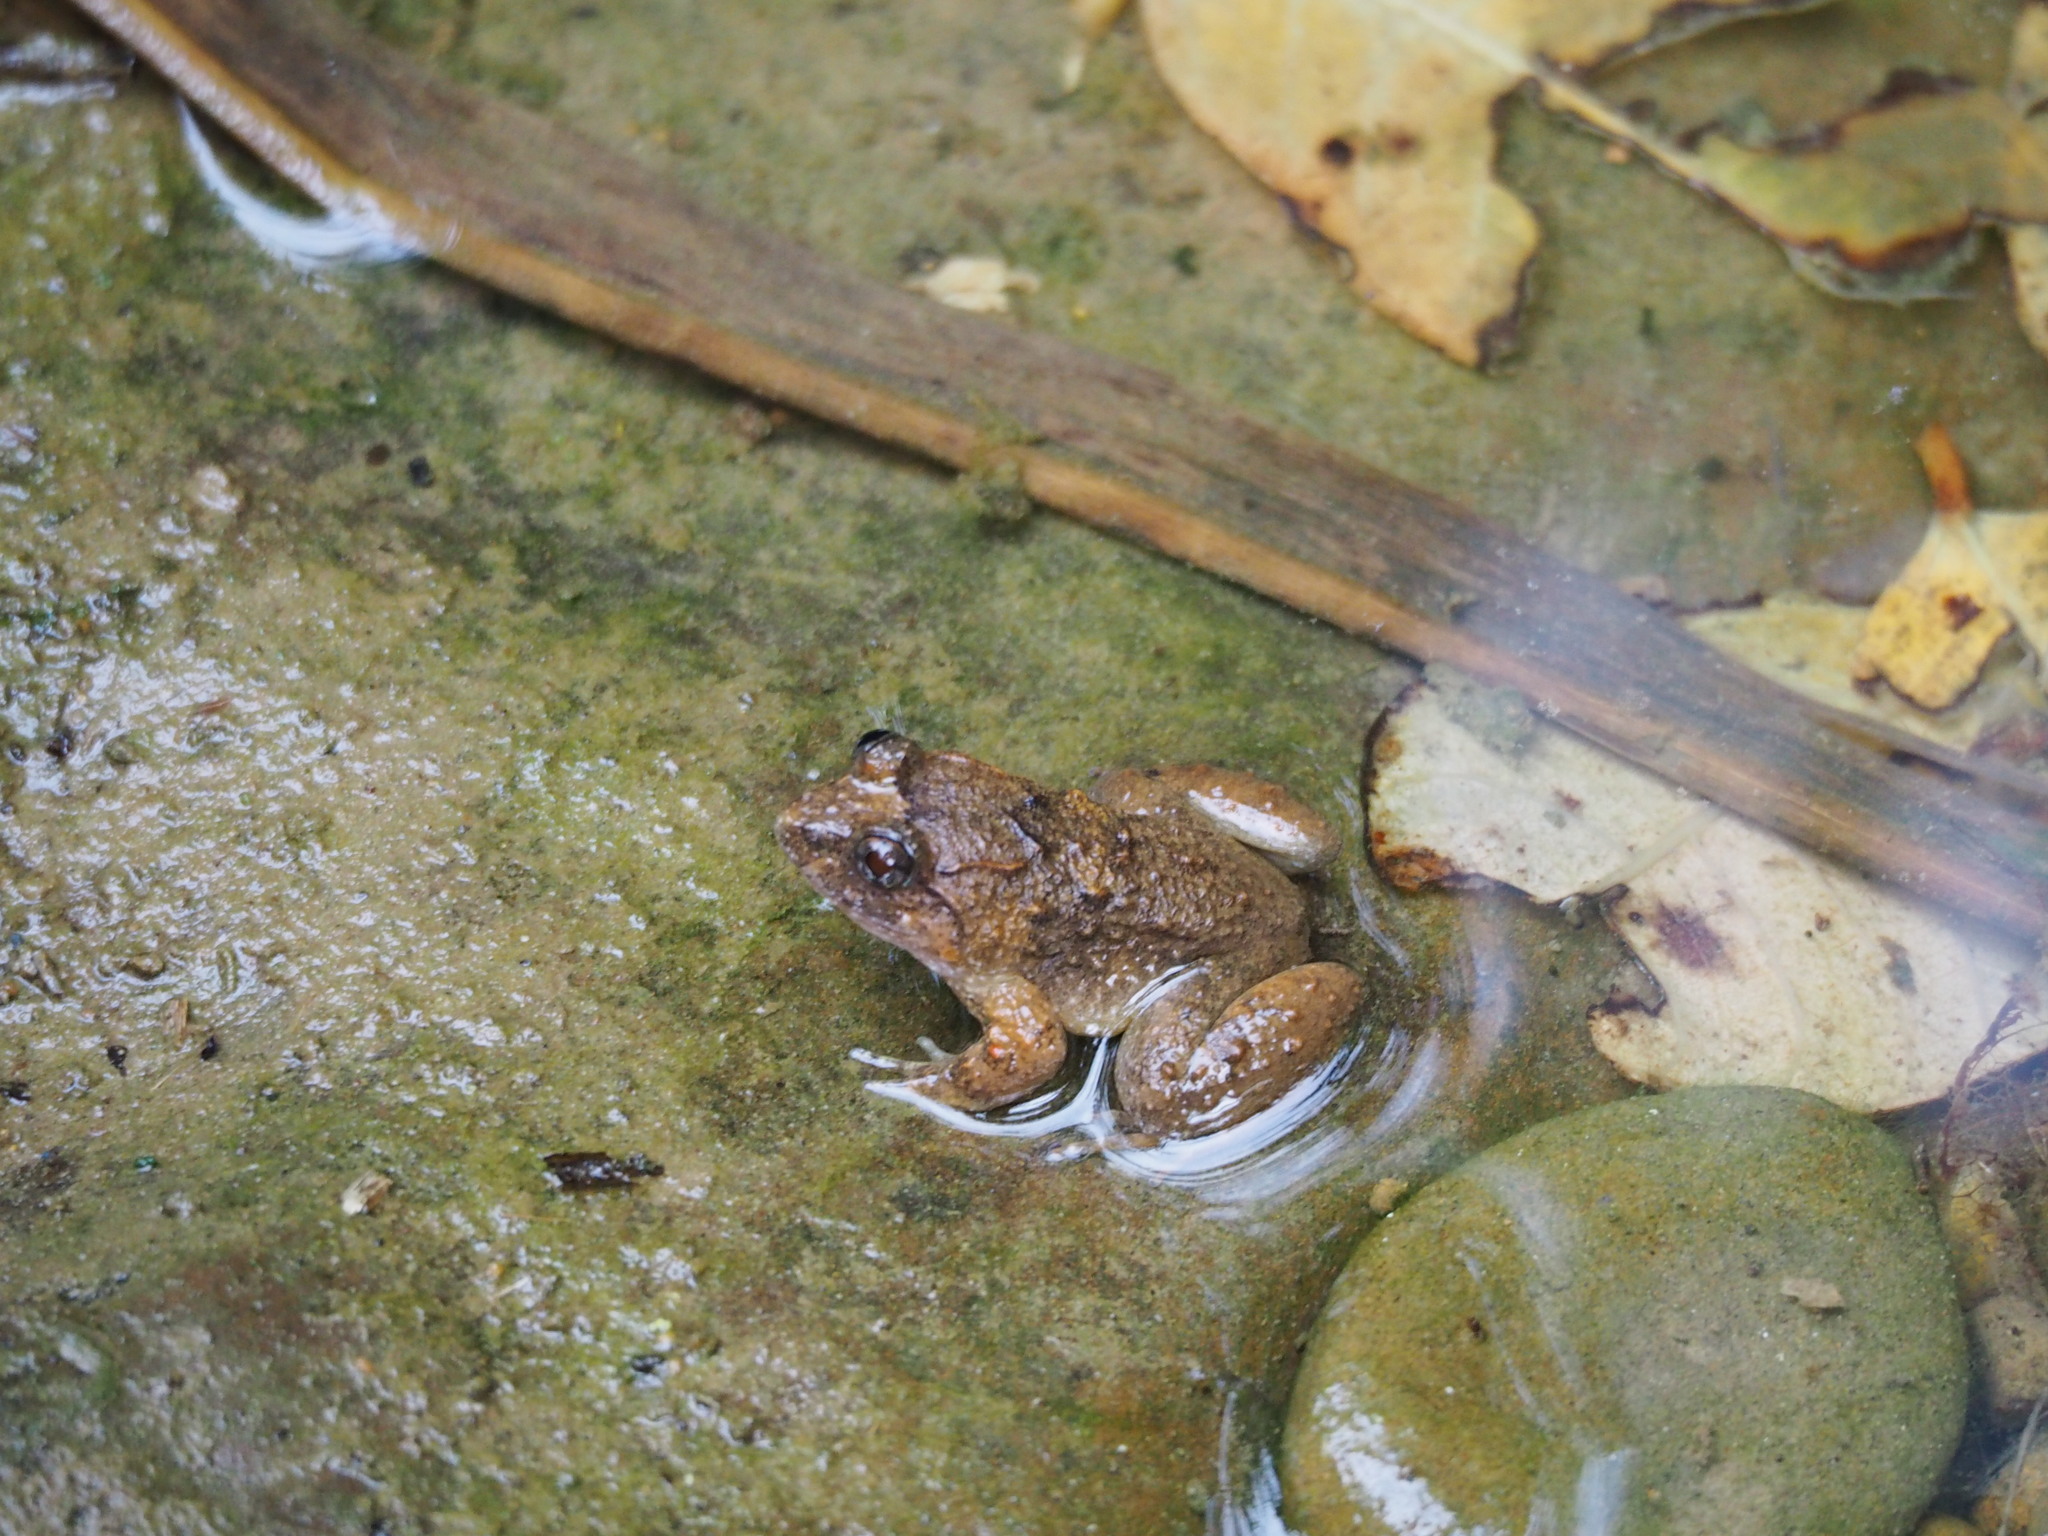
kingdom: Animalia
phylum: Chordata
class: Amphibia
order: Anura
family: Dicroglossidae
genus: Limnonectes
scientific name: Limnonectes fujianensis
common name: Fujian large-headed frog
